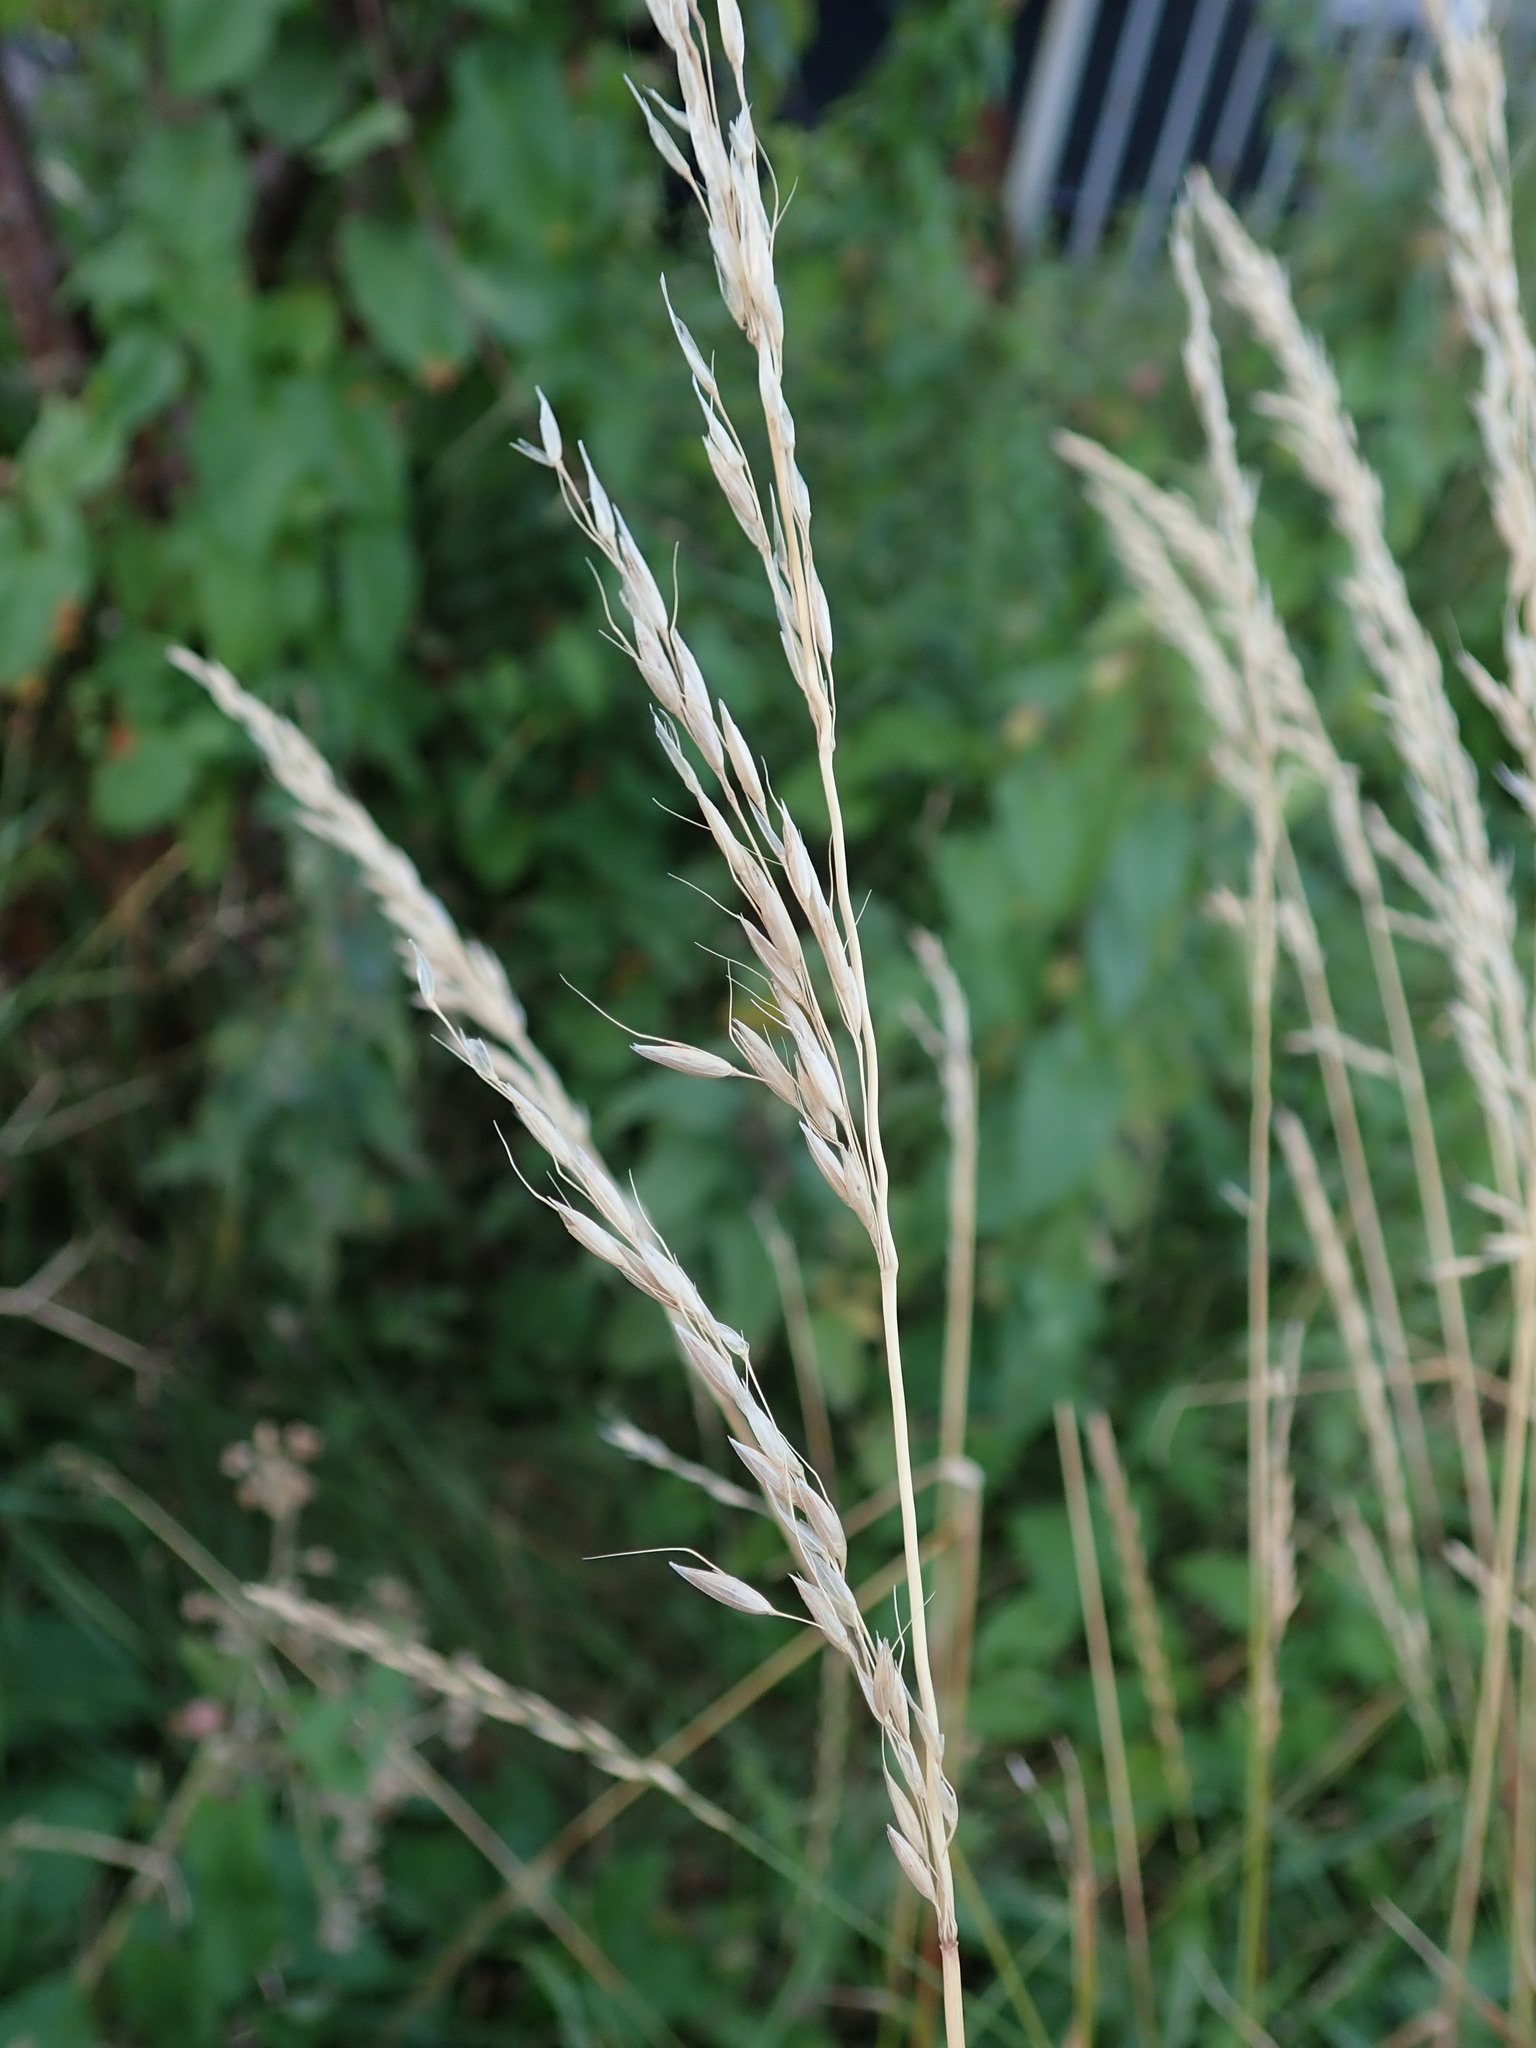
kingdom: Plantae
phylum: Tracheophyta
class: Liliopsida
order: Poales
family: Poaceae
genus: Arrhenatherum
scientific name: Arrhenatherum elatius
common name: Tall oatgrass
